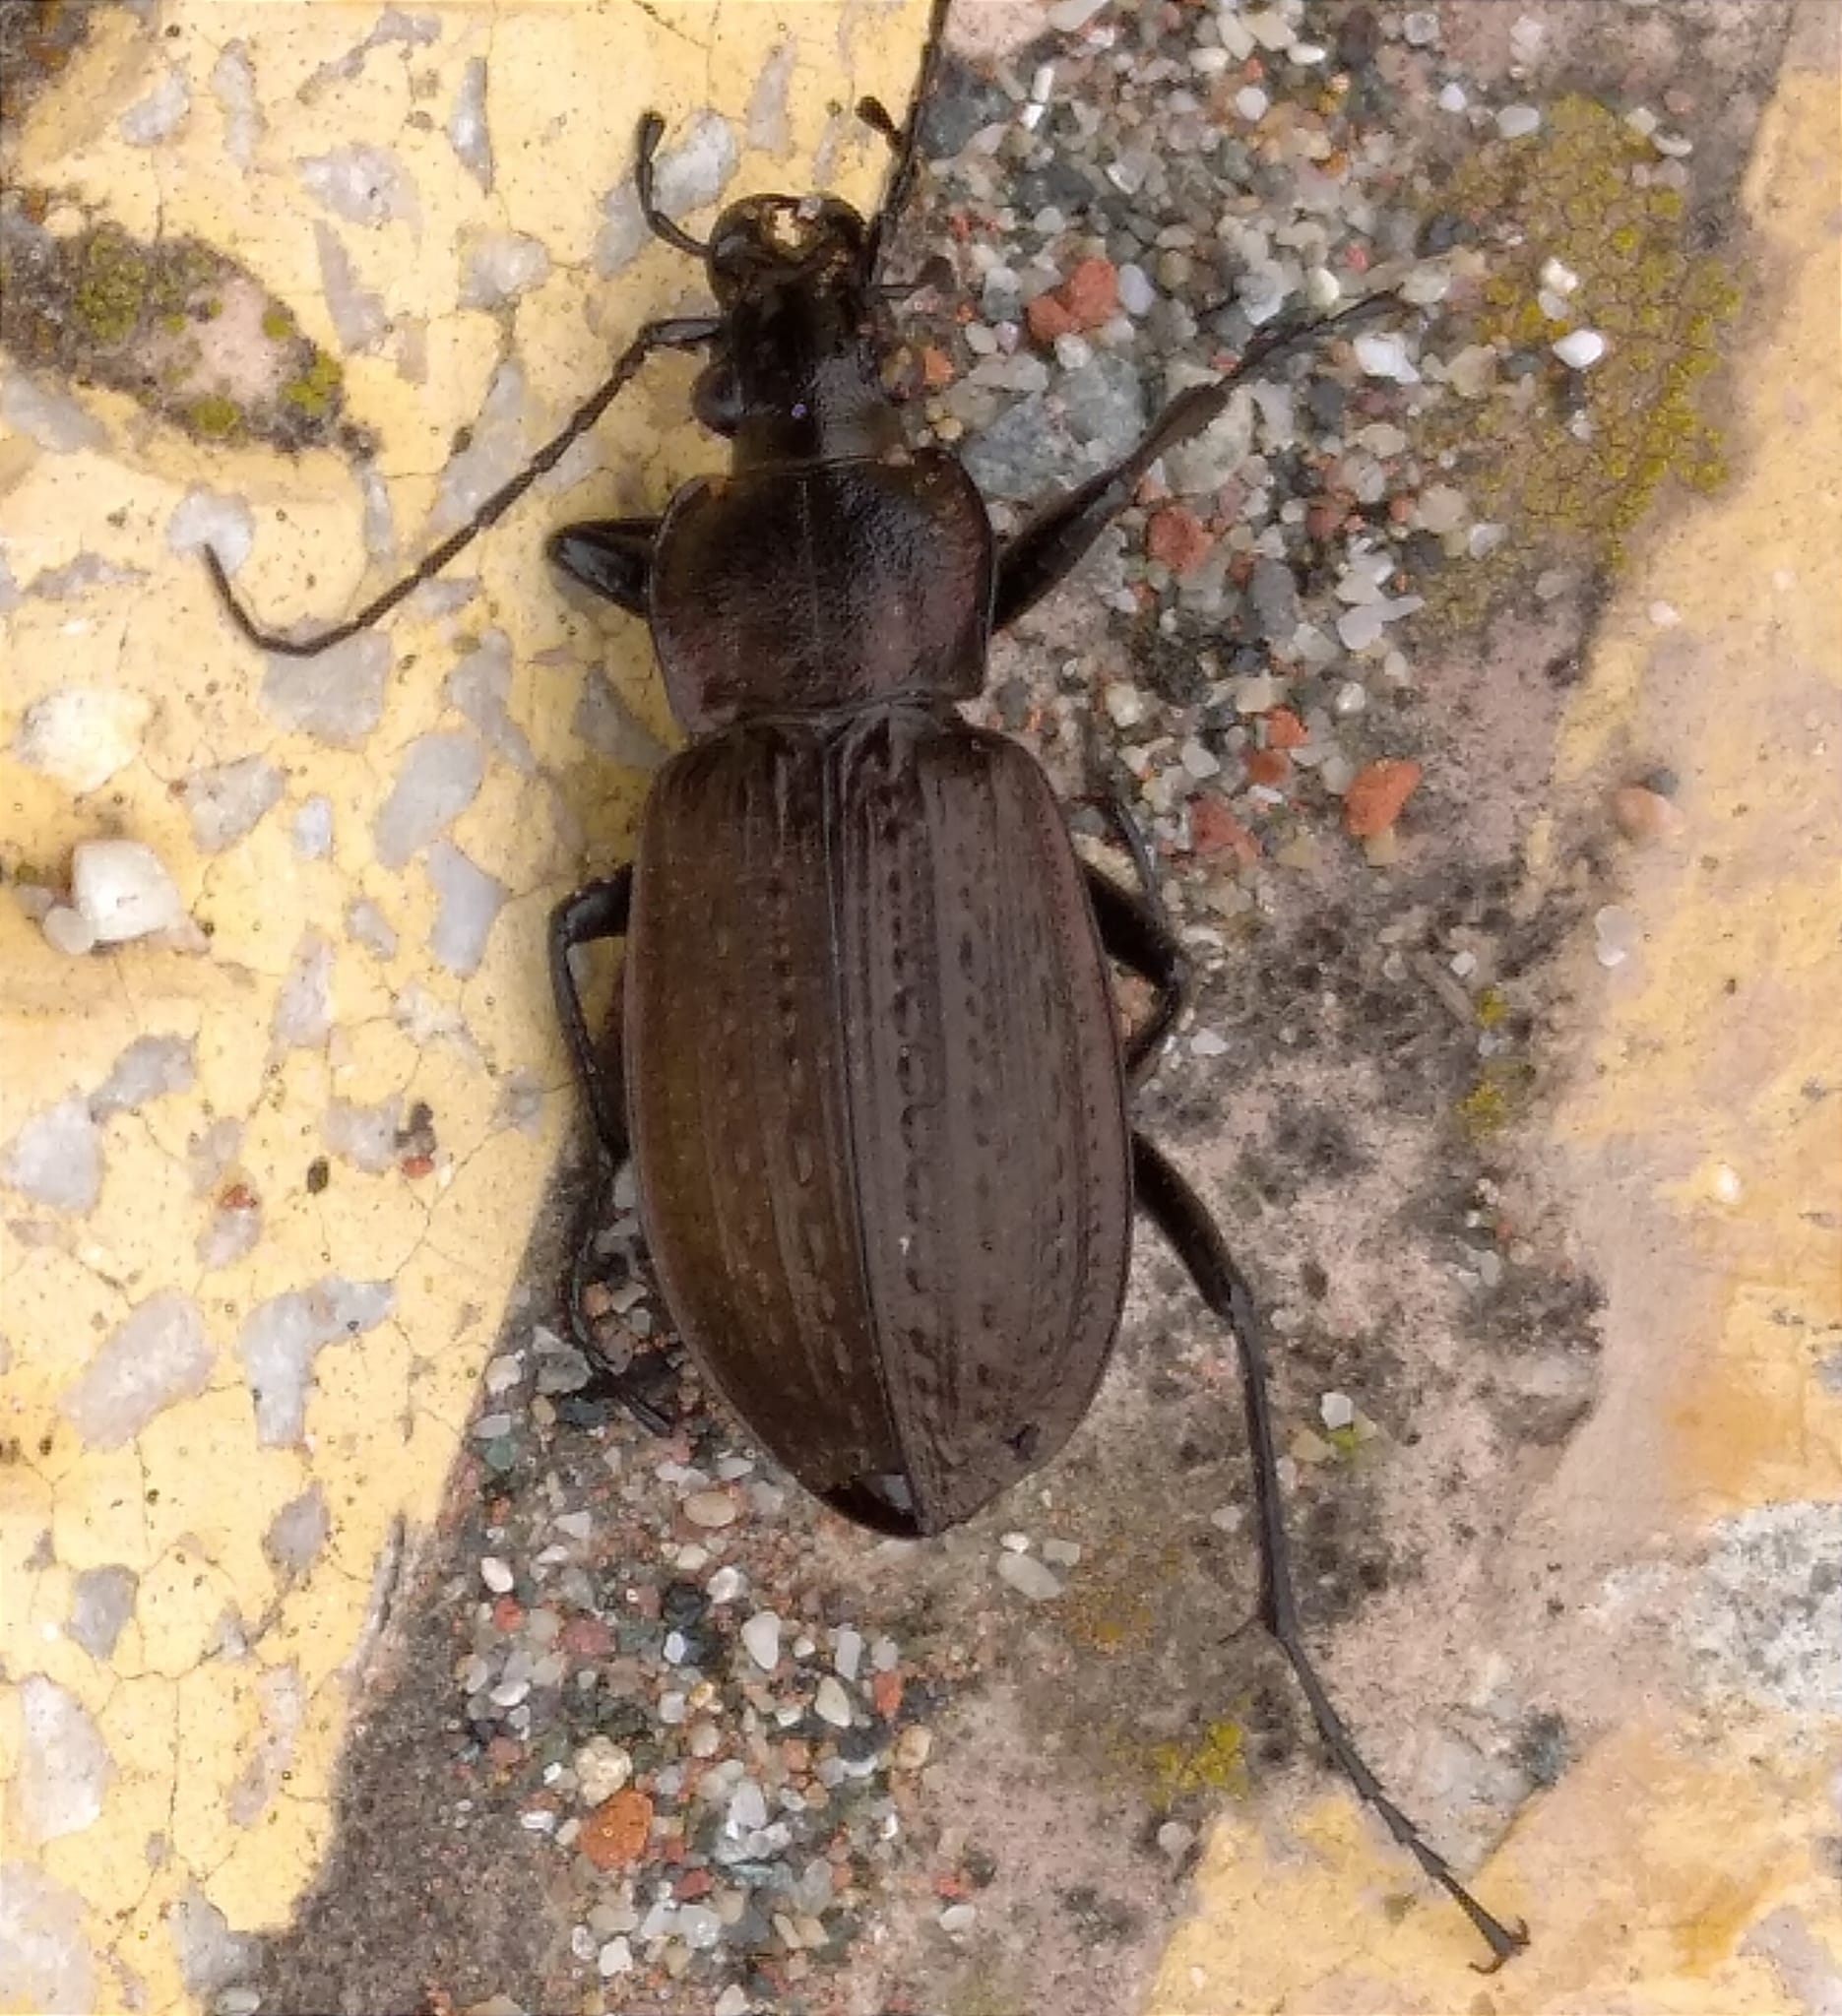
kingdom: Animalia
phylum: Arthropoda
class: Insecta
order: Coleoptera
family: Carabidae
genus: Carabus
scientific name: Carabus granulatus
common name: Granulate ground beetle
